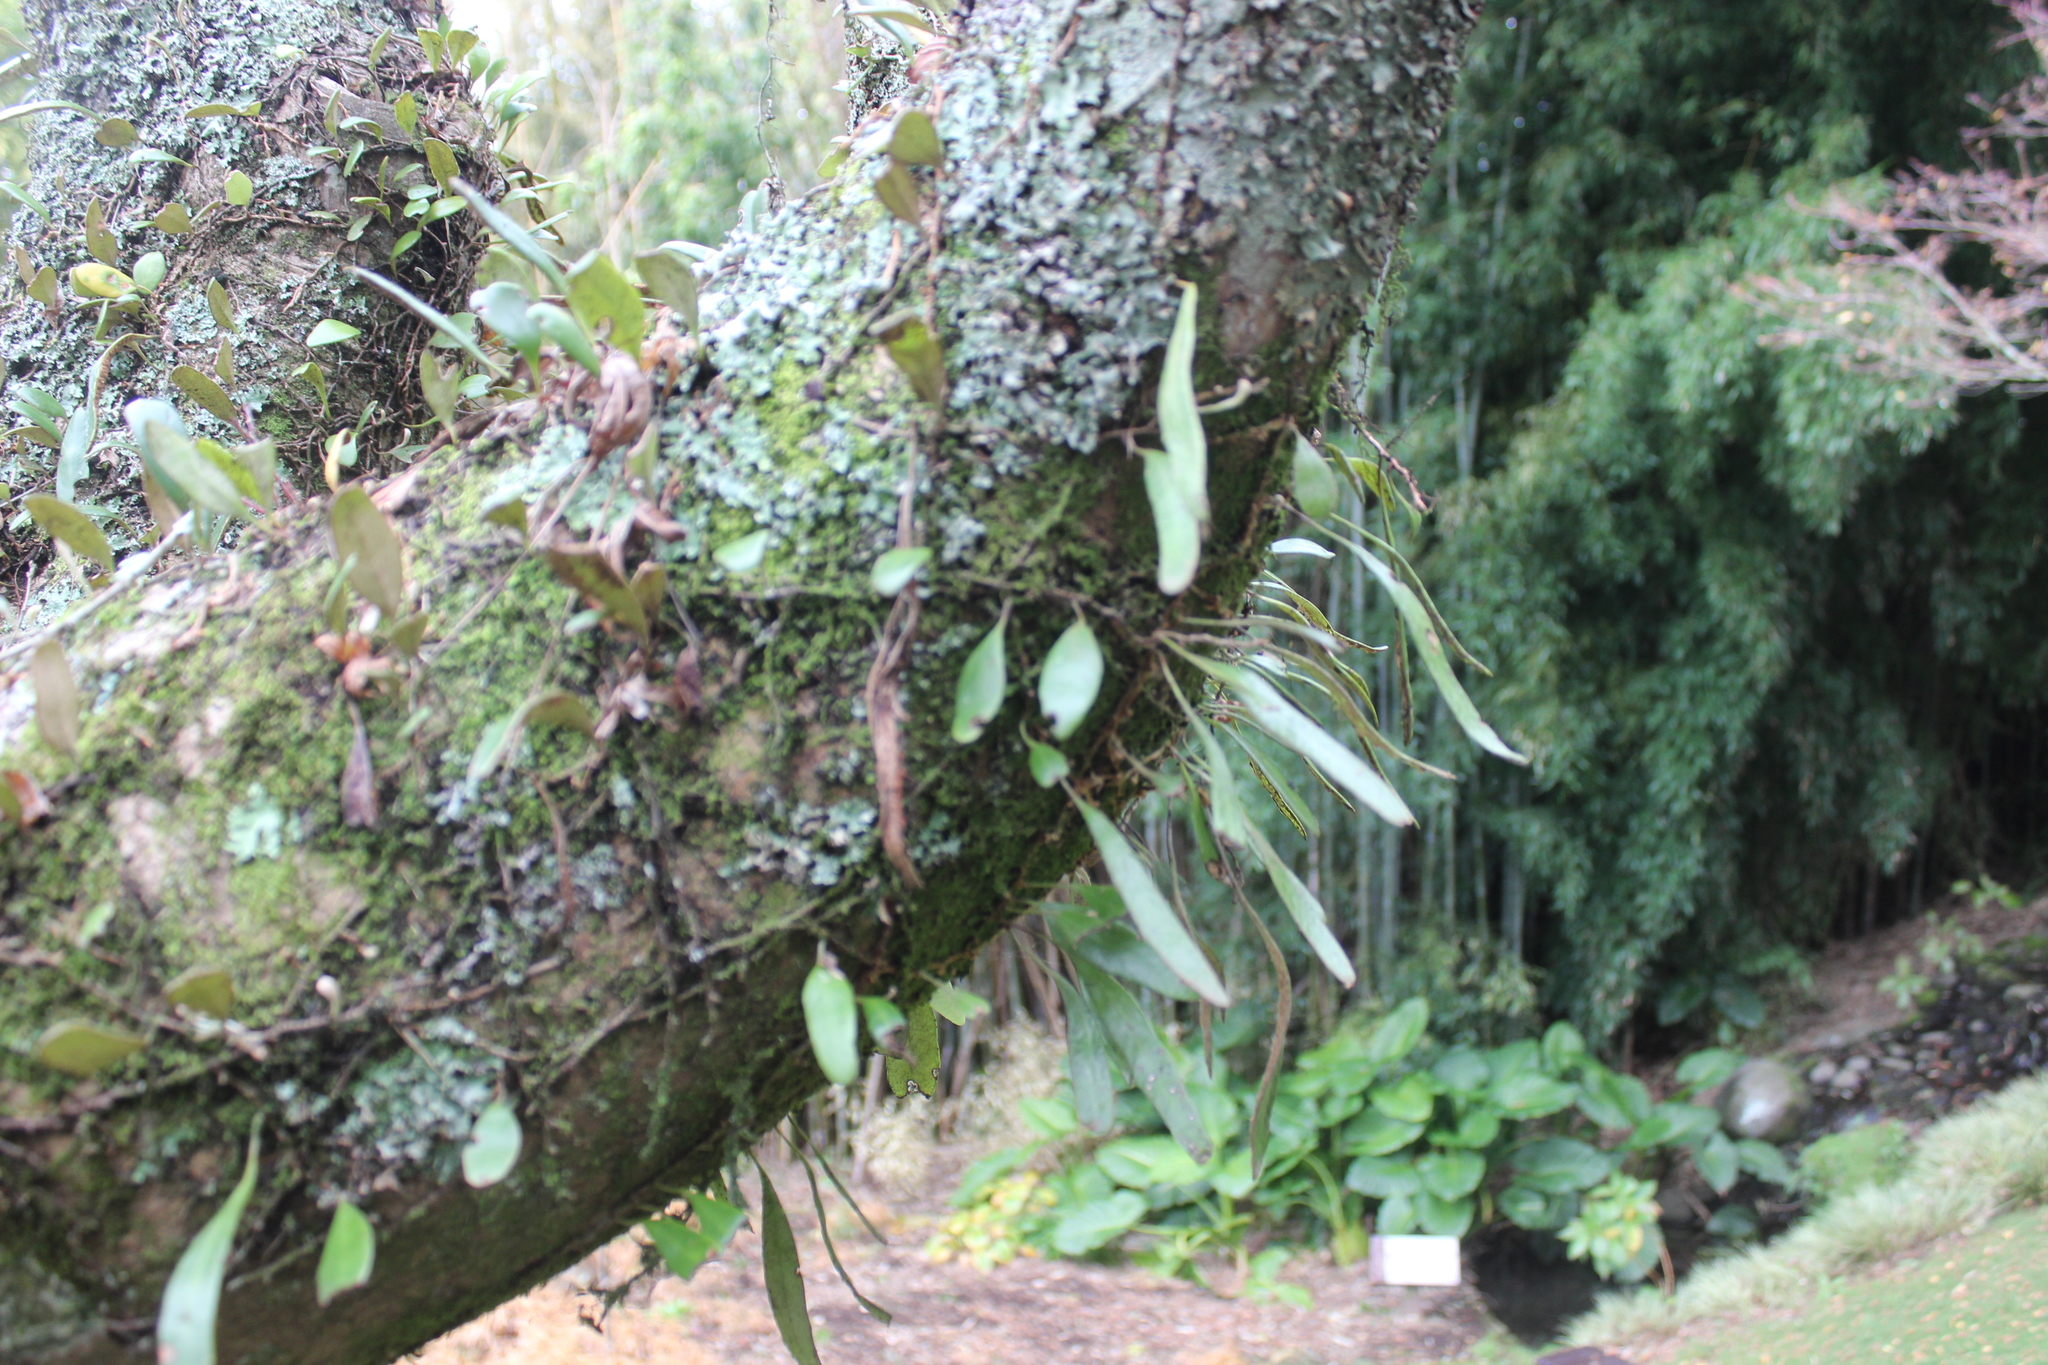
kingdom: Plantae
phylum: Tracheophyta
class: Polypodiopsida
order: Polypodiales
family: Polypodiaceae
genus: Pyrrosia
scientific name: Pyrrosia eleagnifolia
